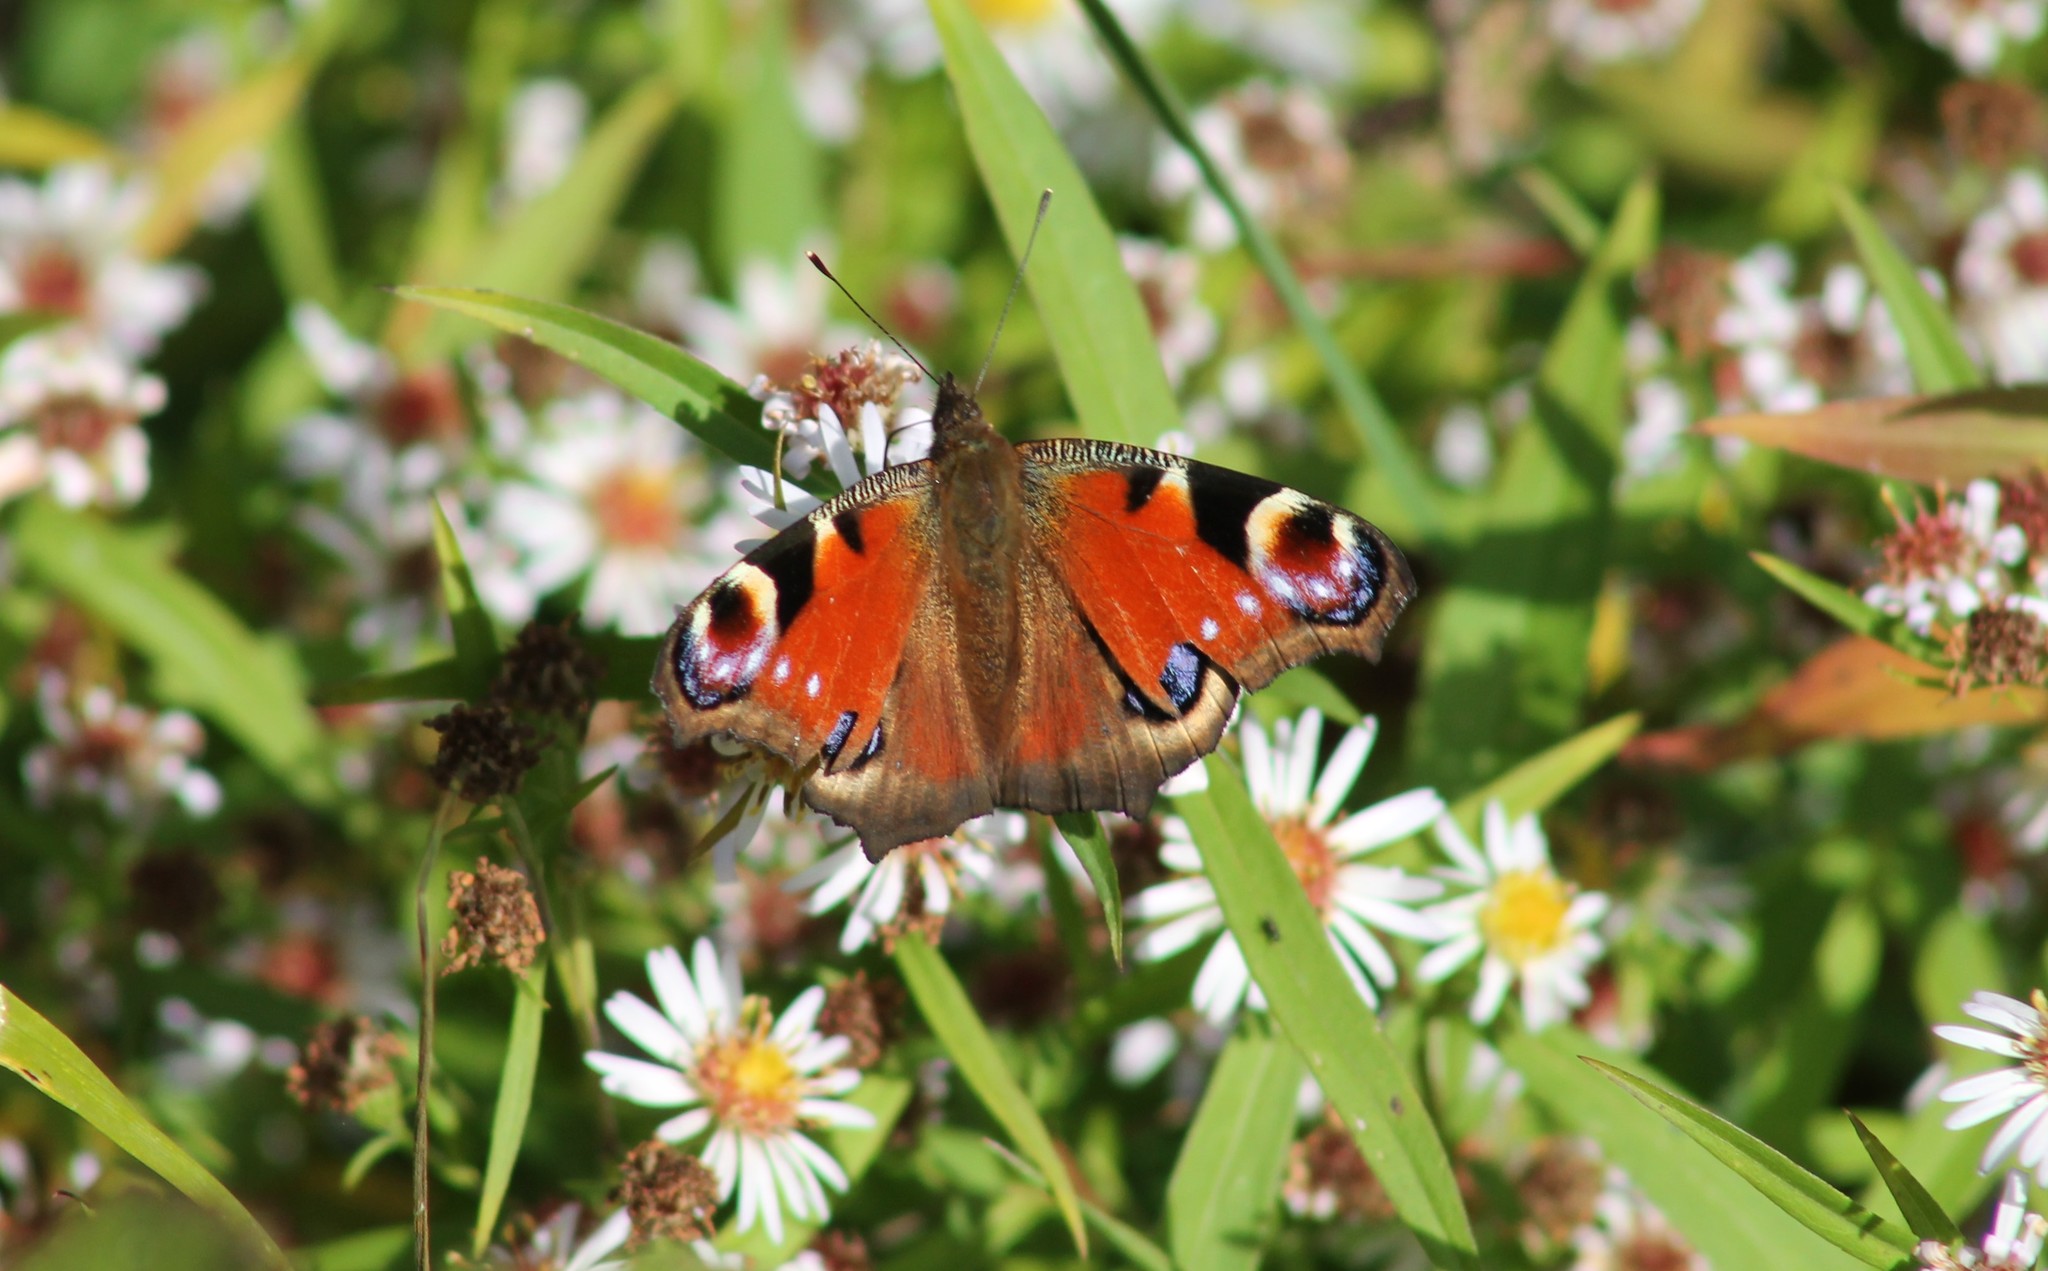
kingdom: Animalia
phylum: Arthropoda
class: Insecta
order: Lepidoptera
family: Nymphalidae
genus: Aglais
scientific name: Aglais io
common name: Peacock
